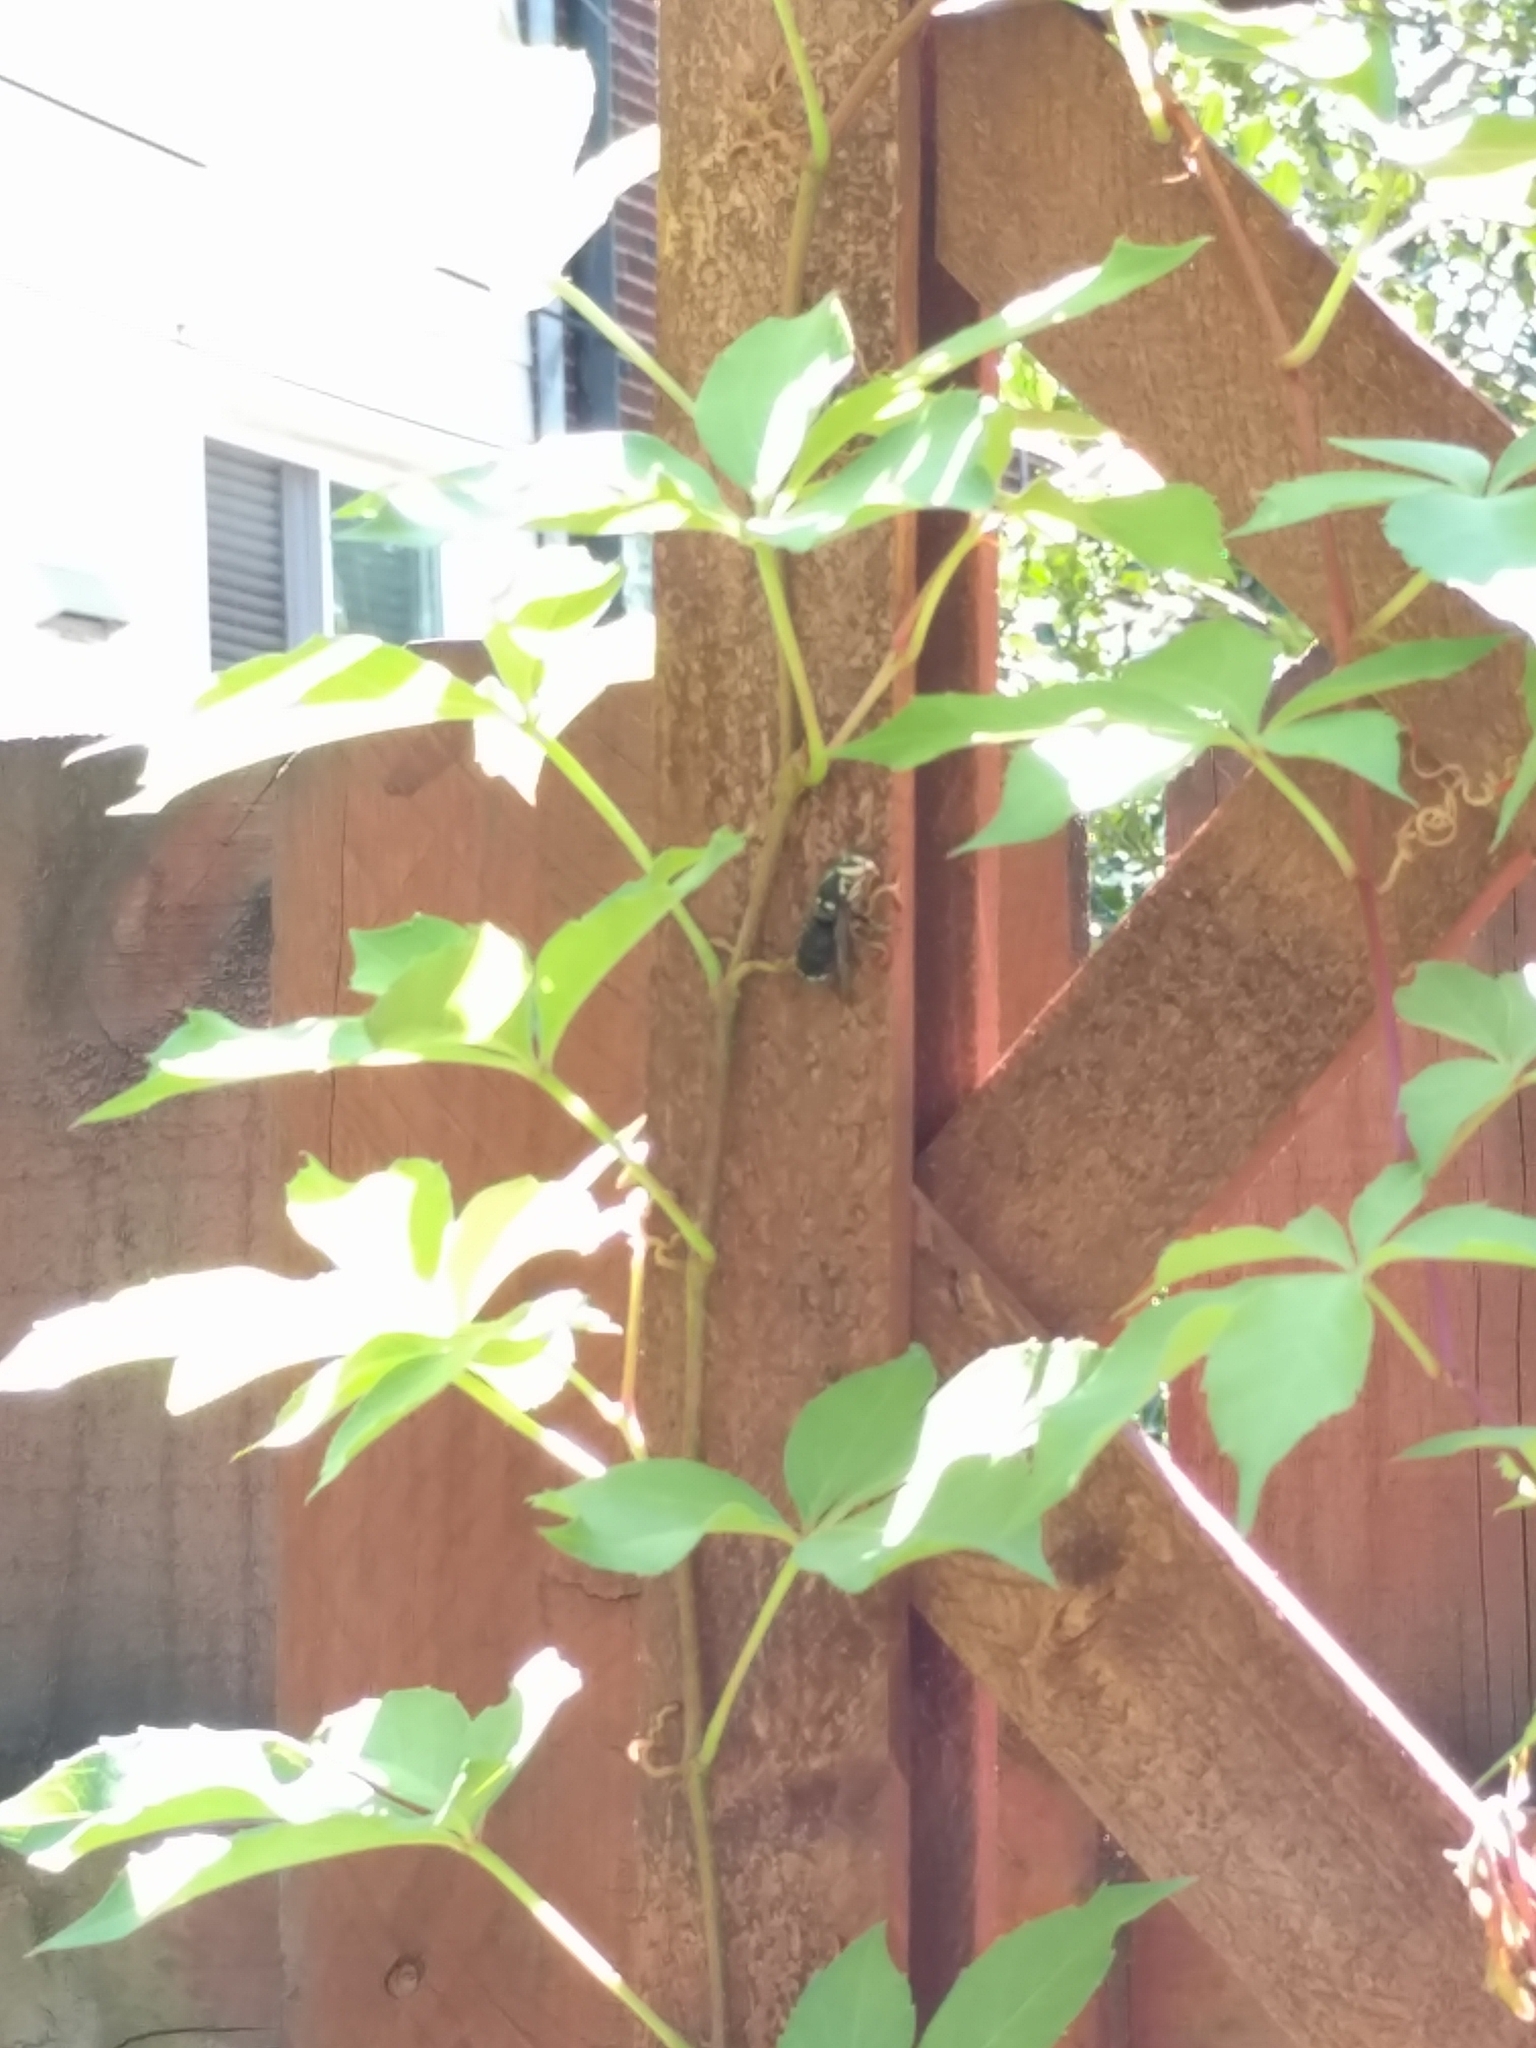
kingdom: Animalia
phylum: Arthropoda
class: Insecta
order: Hymenoptera
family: Vespidae
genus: Dolichovespula
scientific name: Dolichovespula maculata
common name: Bald-faced hornet
